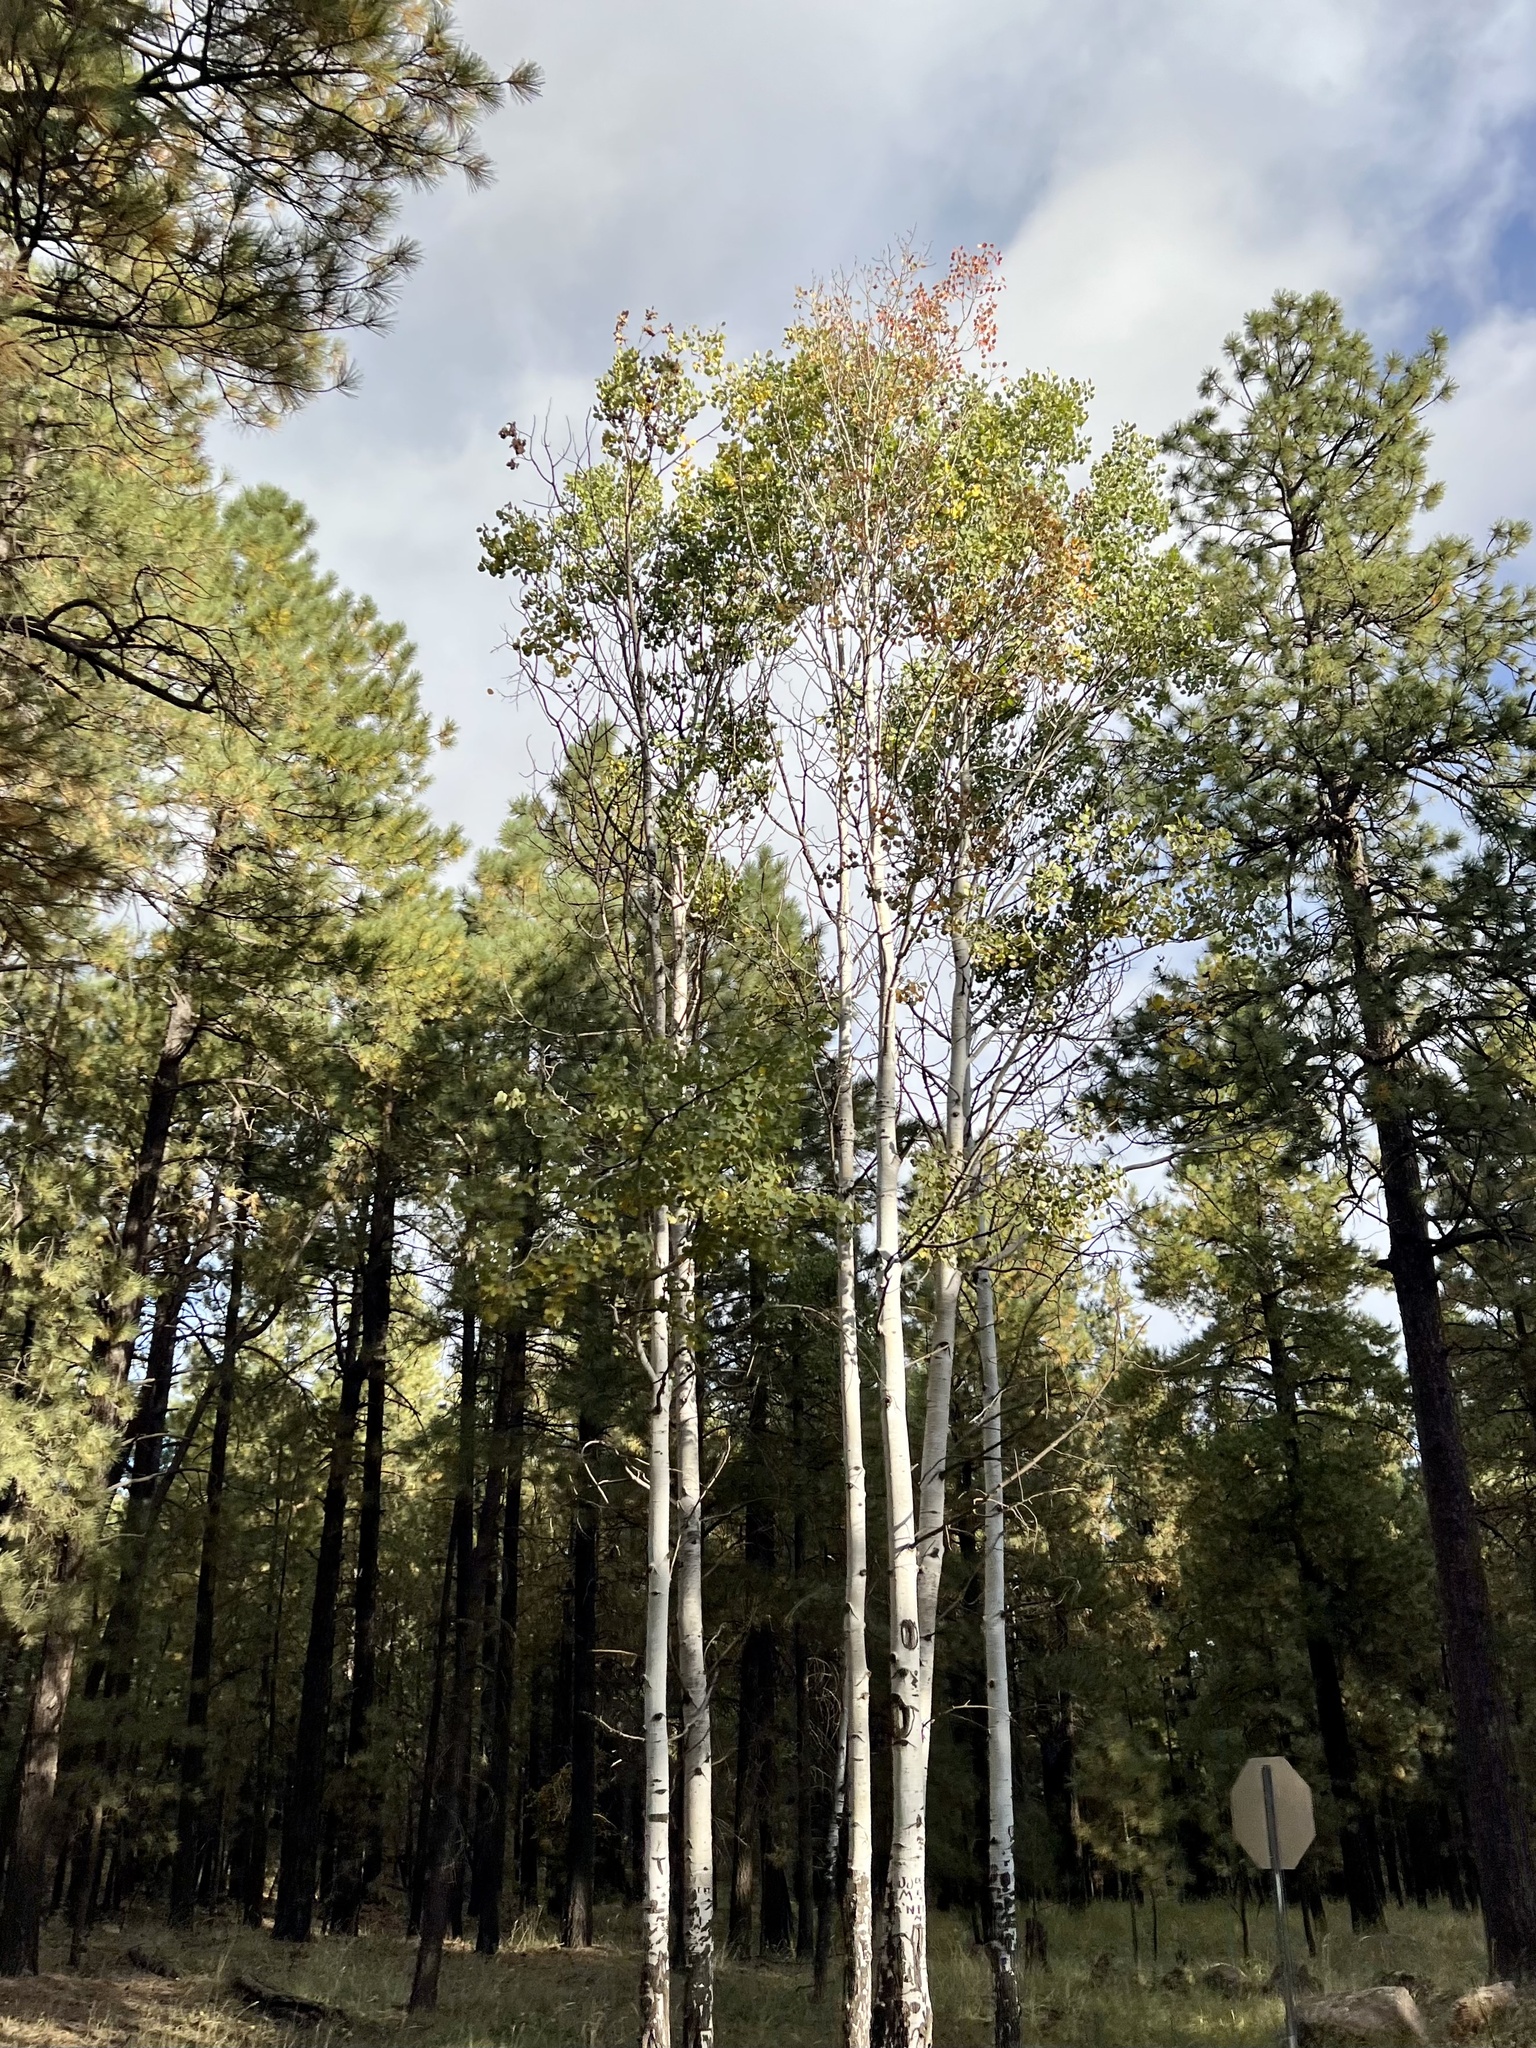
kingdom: Plantae
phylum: Tracheophyta
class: Magnoliopsida
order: Malpighiales
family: Salicaceae
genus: Populus
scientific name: Populus tremuloides
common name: Quaking aspen
